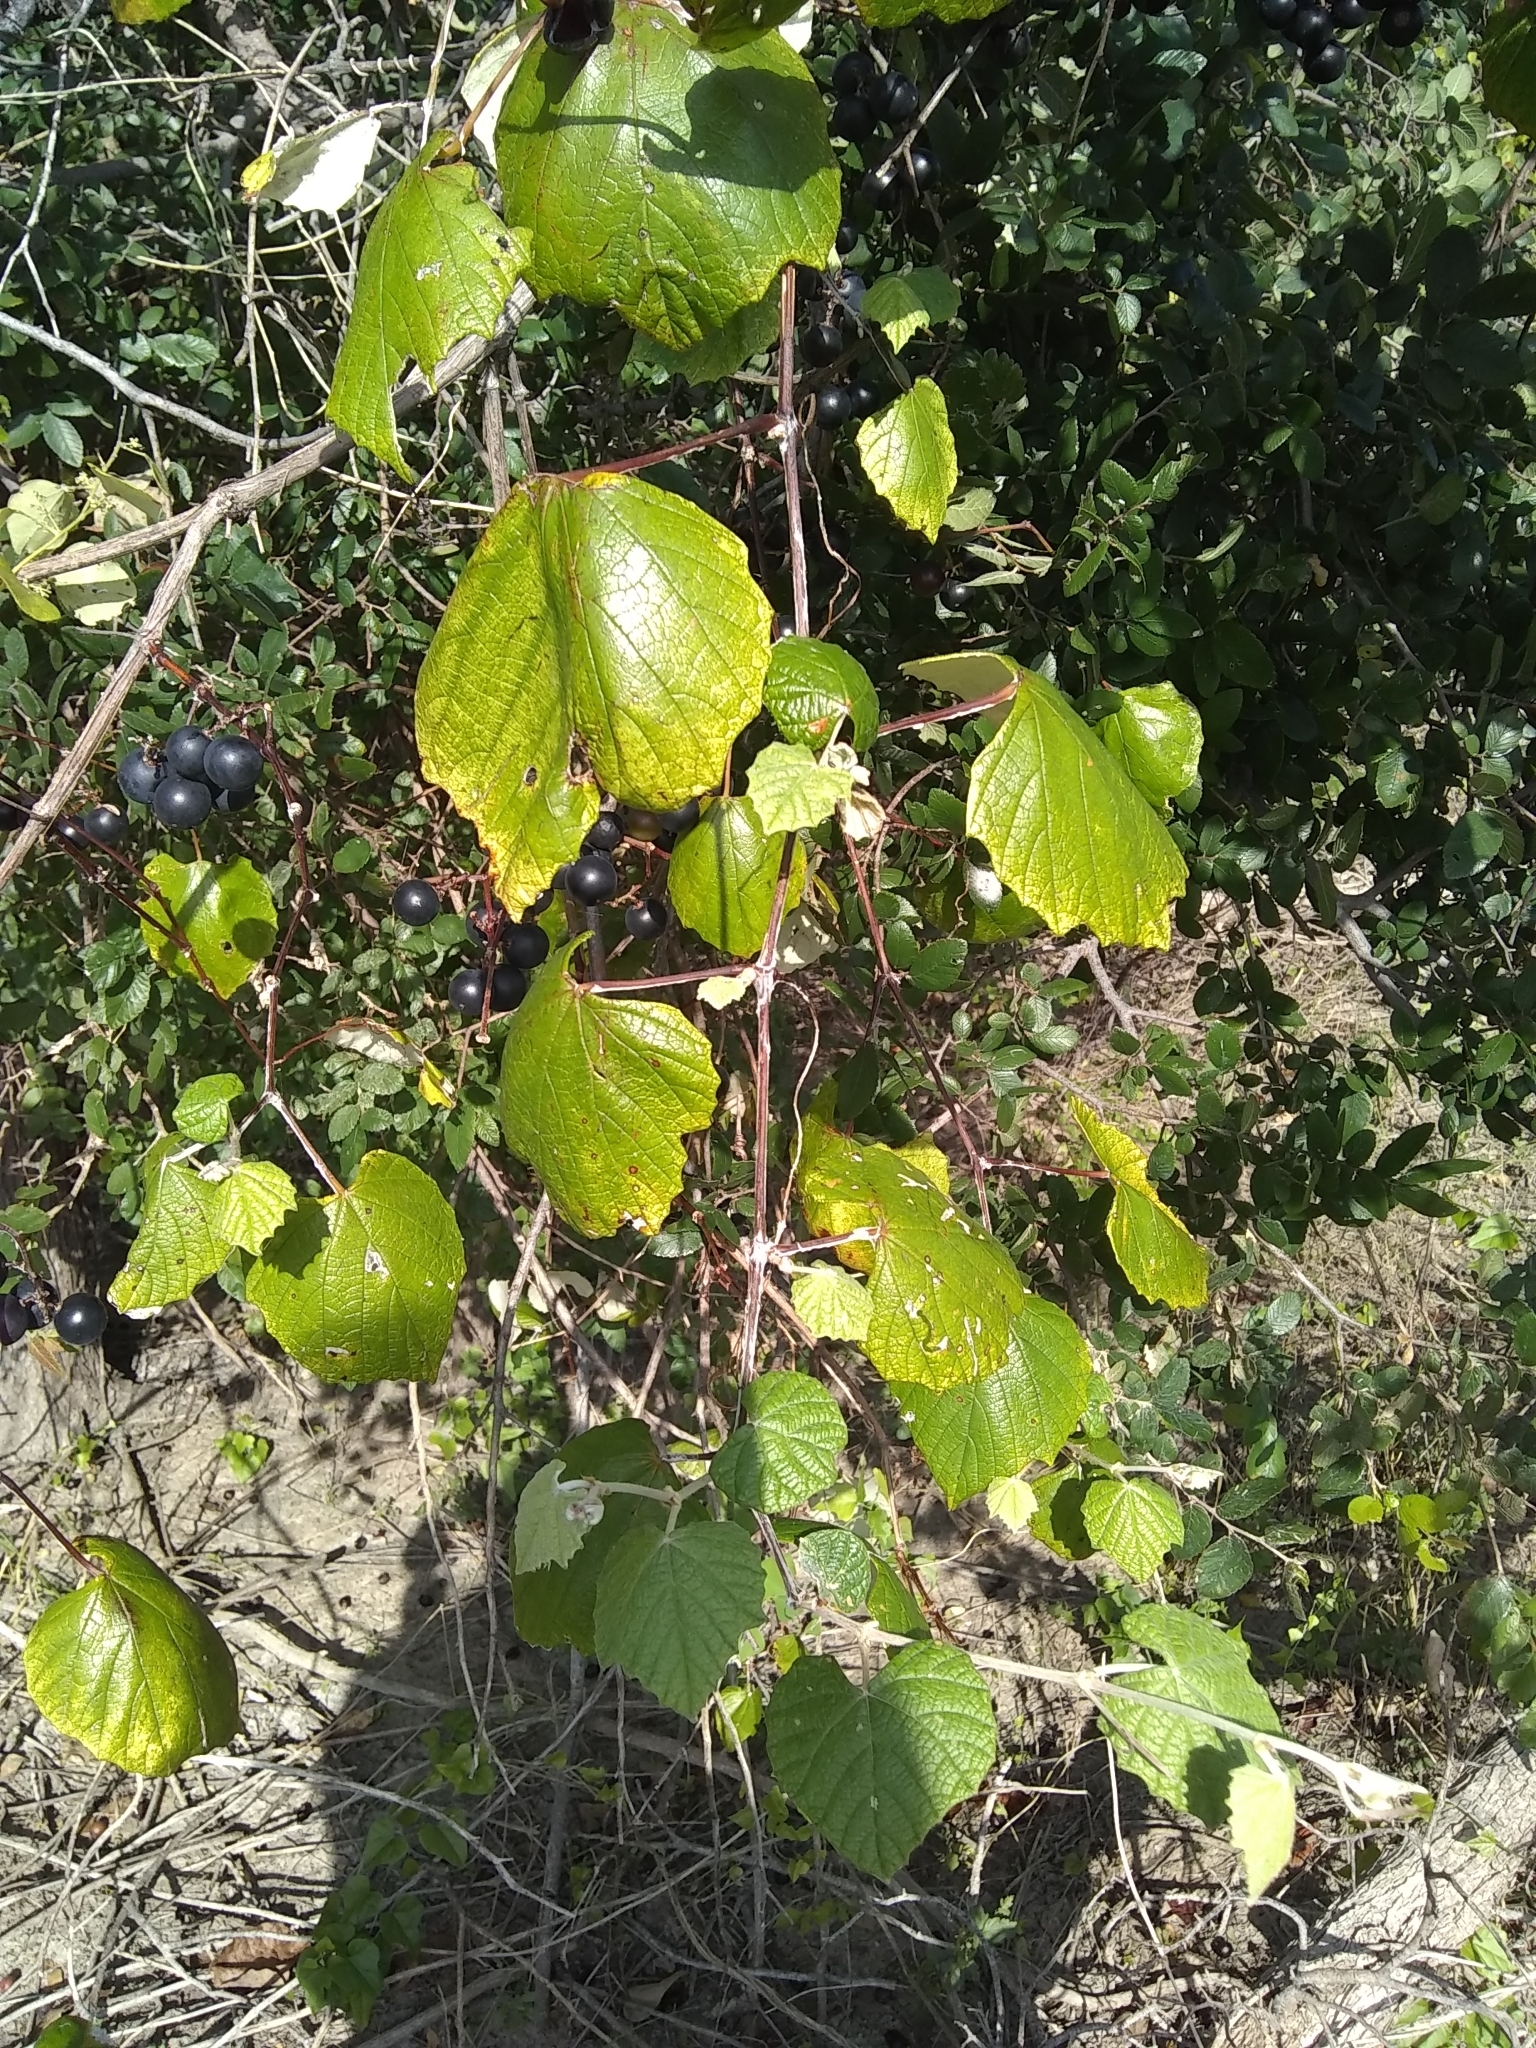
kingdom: Plantae
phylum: Tracheophyta
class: Magnoliopsida
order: Vitales
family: Vitaceae
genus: Vitis
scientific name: Vitis mustangensis
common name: Mustang grape
